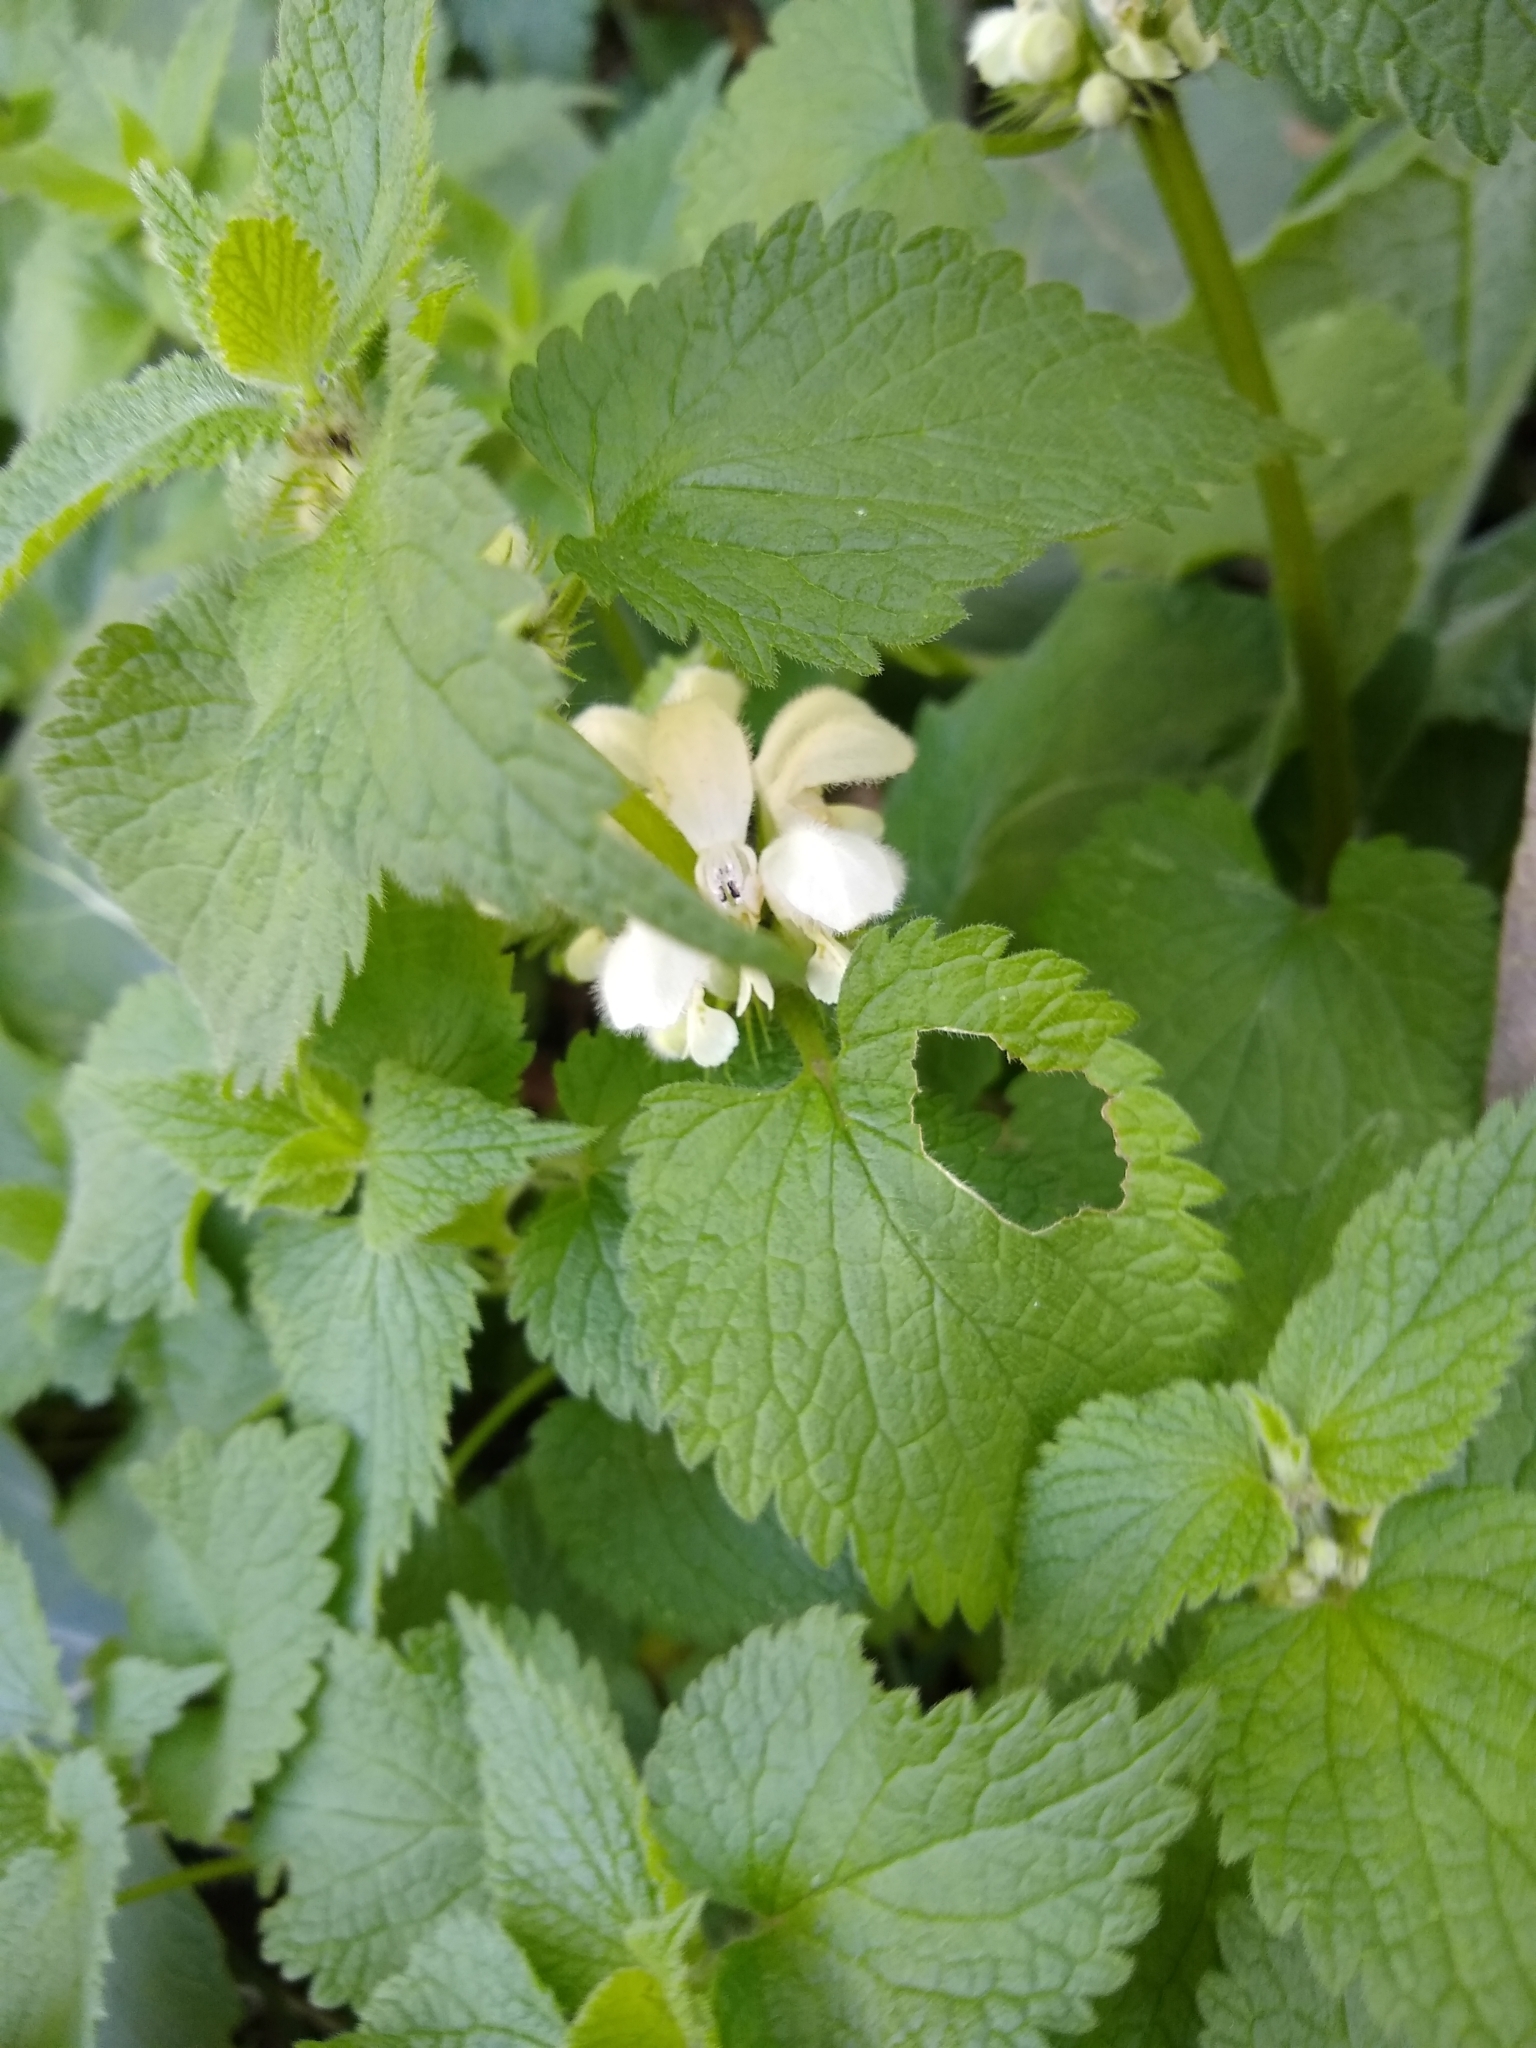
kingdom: Plantae
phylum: Tracheophyta
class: Magnoliopsida
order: Lamiales
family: Lamiaceae
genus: Lamium
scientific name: Lamium album
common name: White dead-nettle
